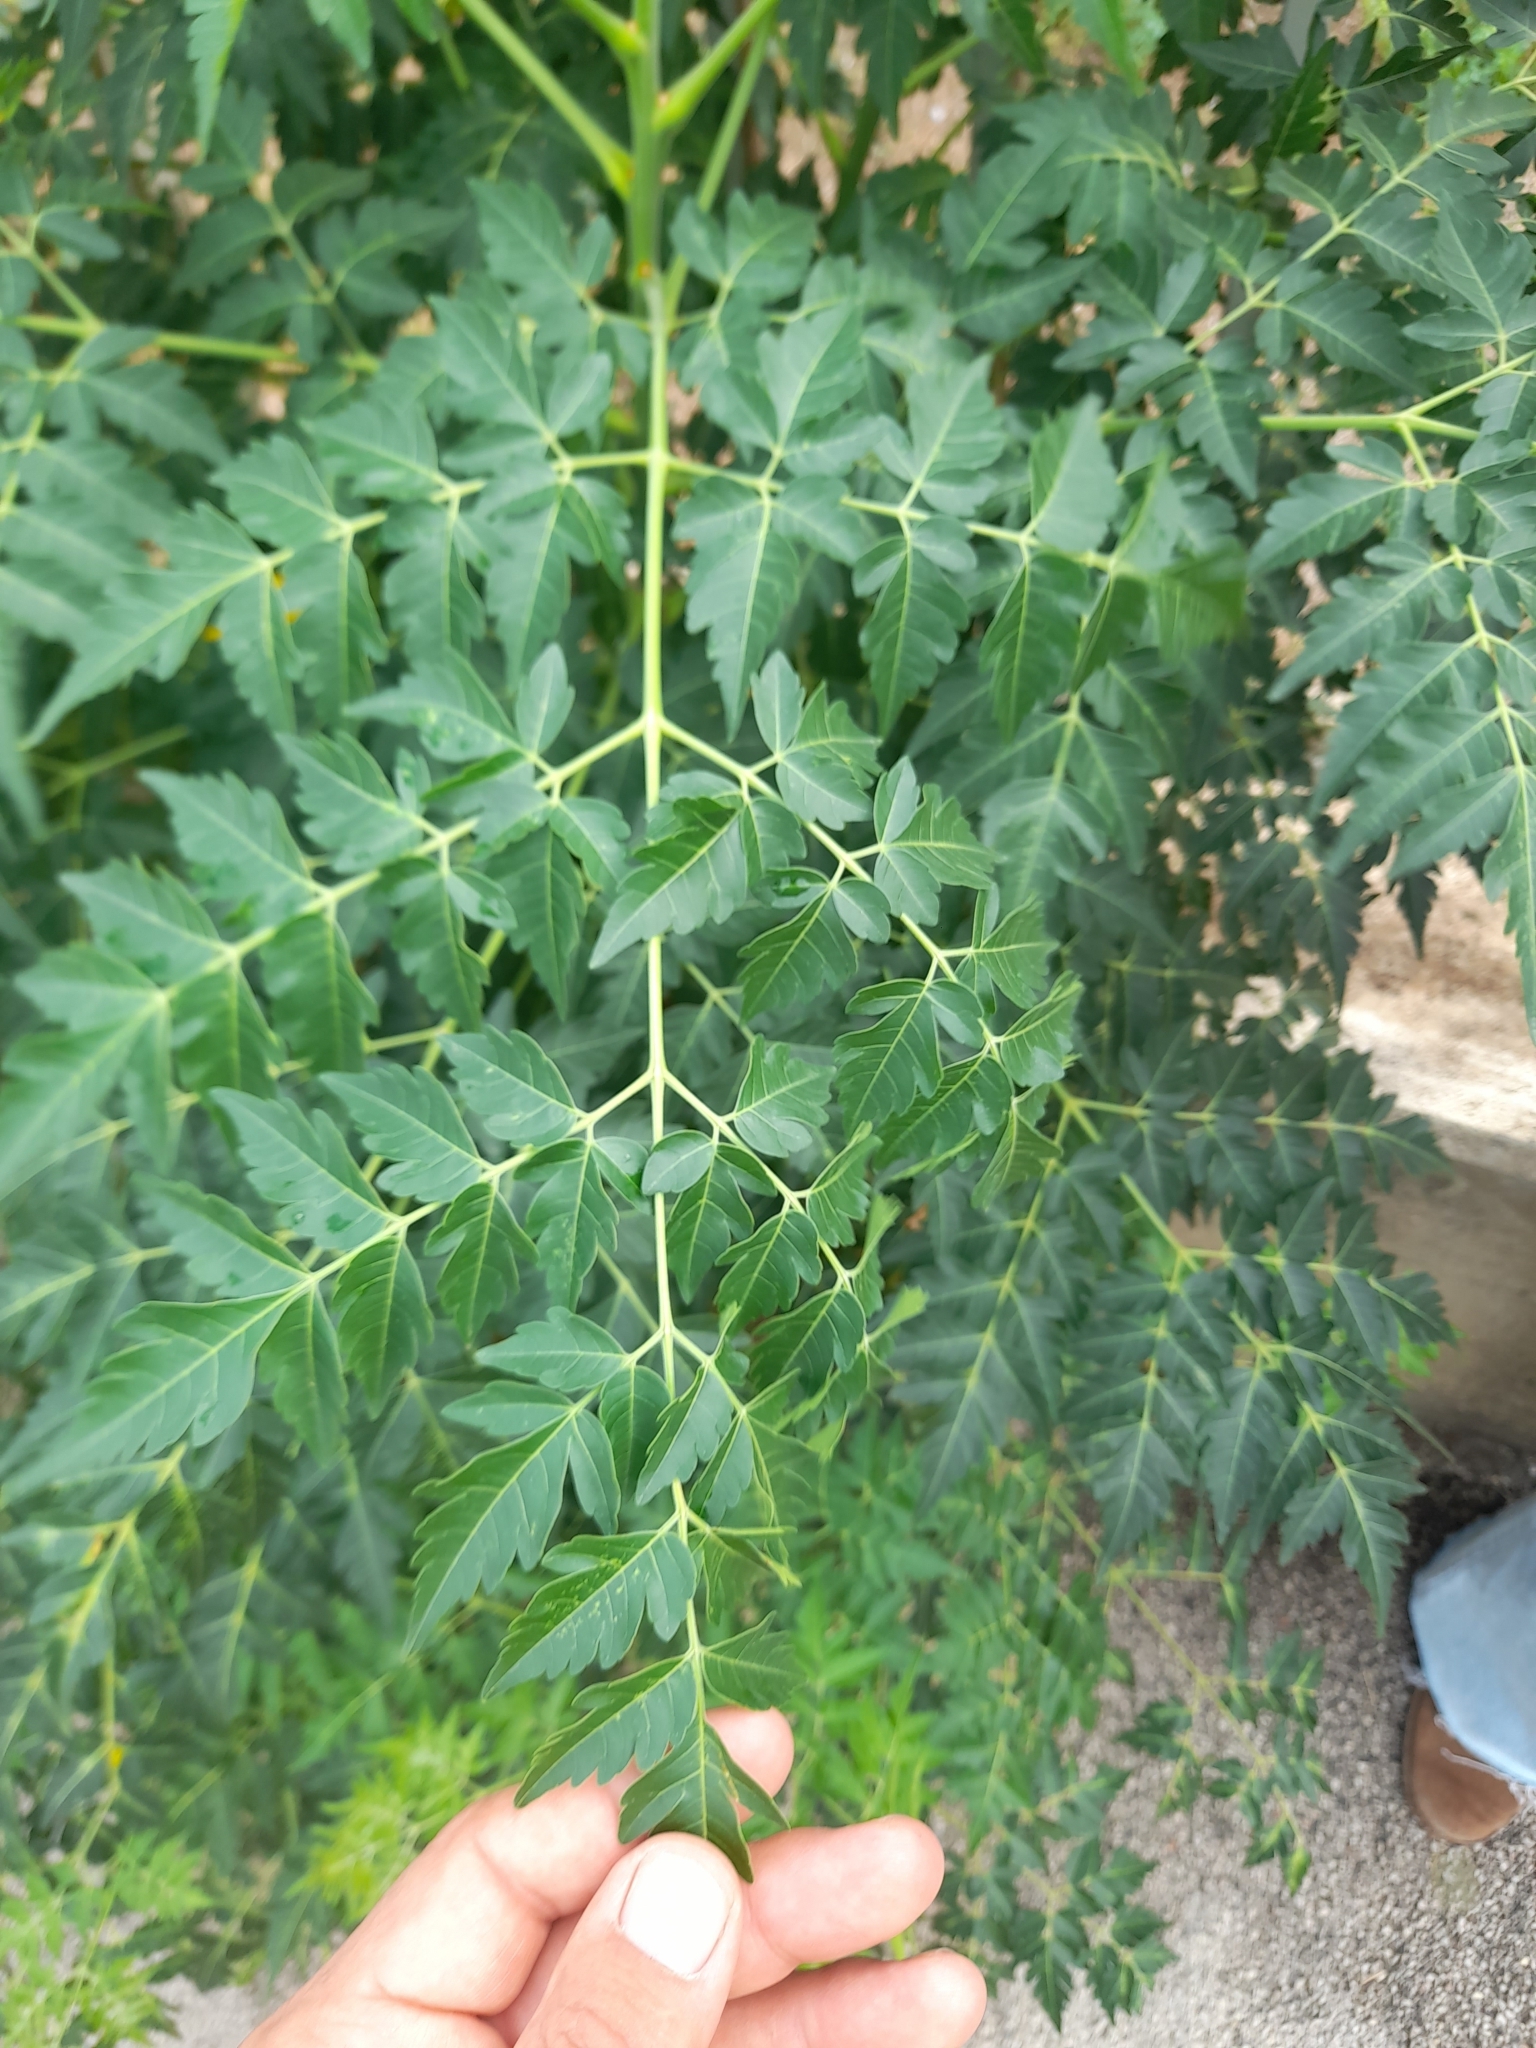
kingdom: Plantae
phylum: Tracheophyta
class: Magnoliopsida
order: Sapindales
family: Meliaceae
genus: Melia
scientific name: Melia azedarach
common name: Chinaberrytree
